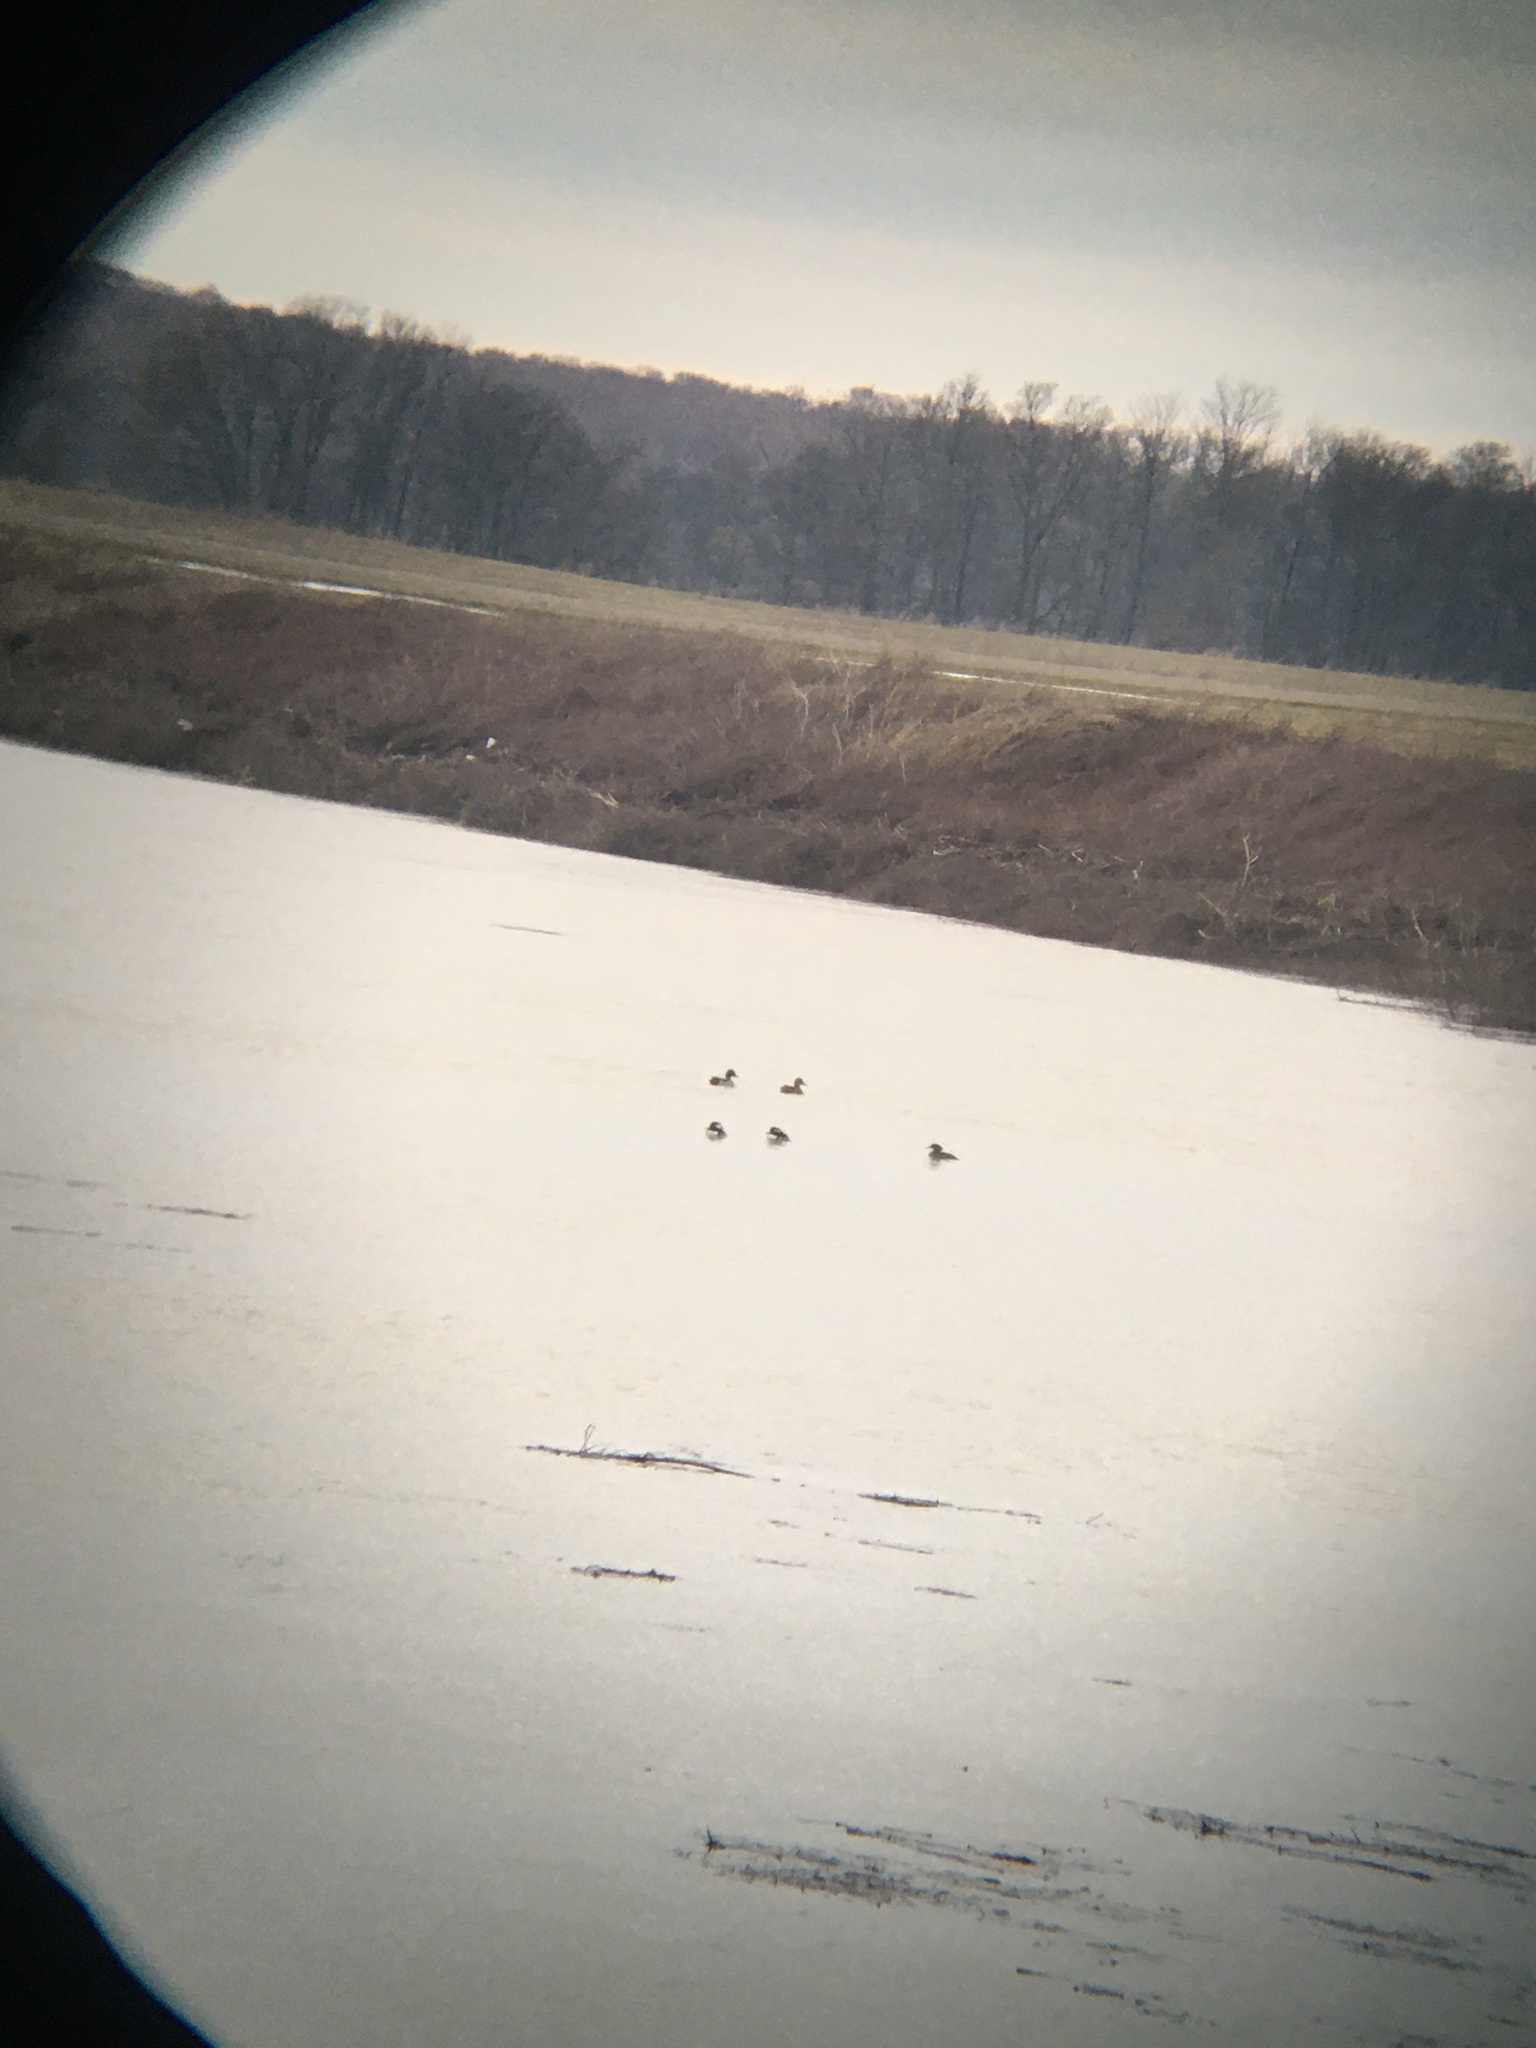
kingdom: Animalia
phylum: Chordata
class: Aves
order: Anseriformes
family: Anatidae
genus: Anas
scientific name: Anas platyrhynchos
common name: Mallard
